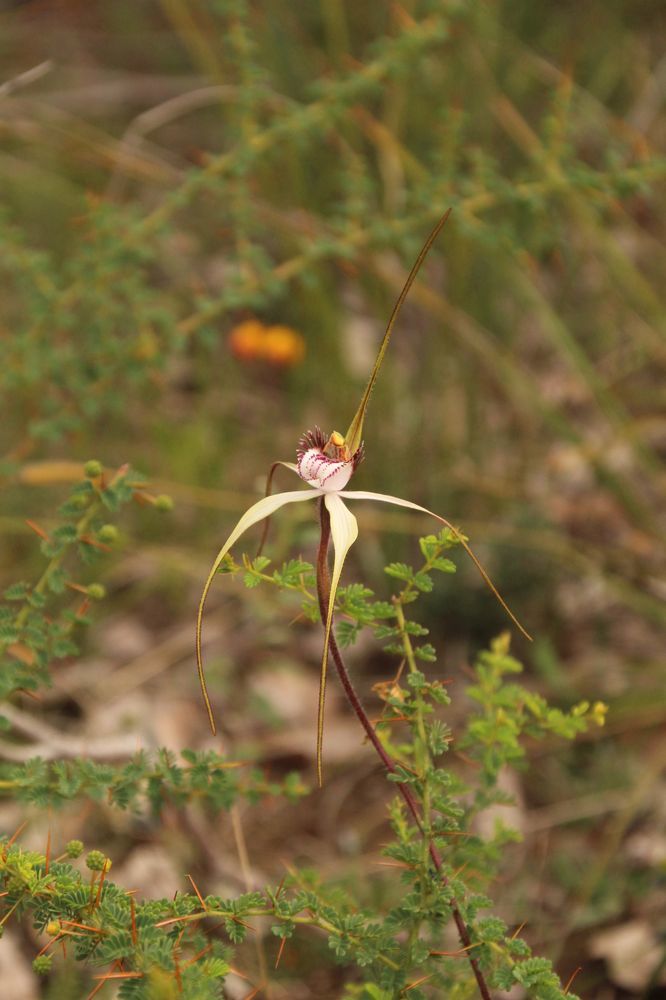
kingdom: Plantae
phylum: Tracheophyta
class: Liliopsida
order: Asparagales
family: Orchidaceae
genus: Caladenia
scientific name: Caladenia longicauda
